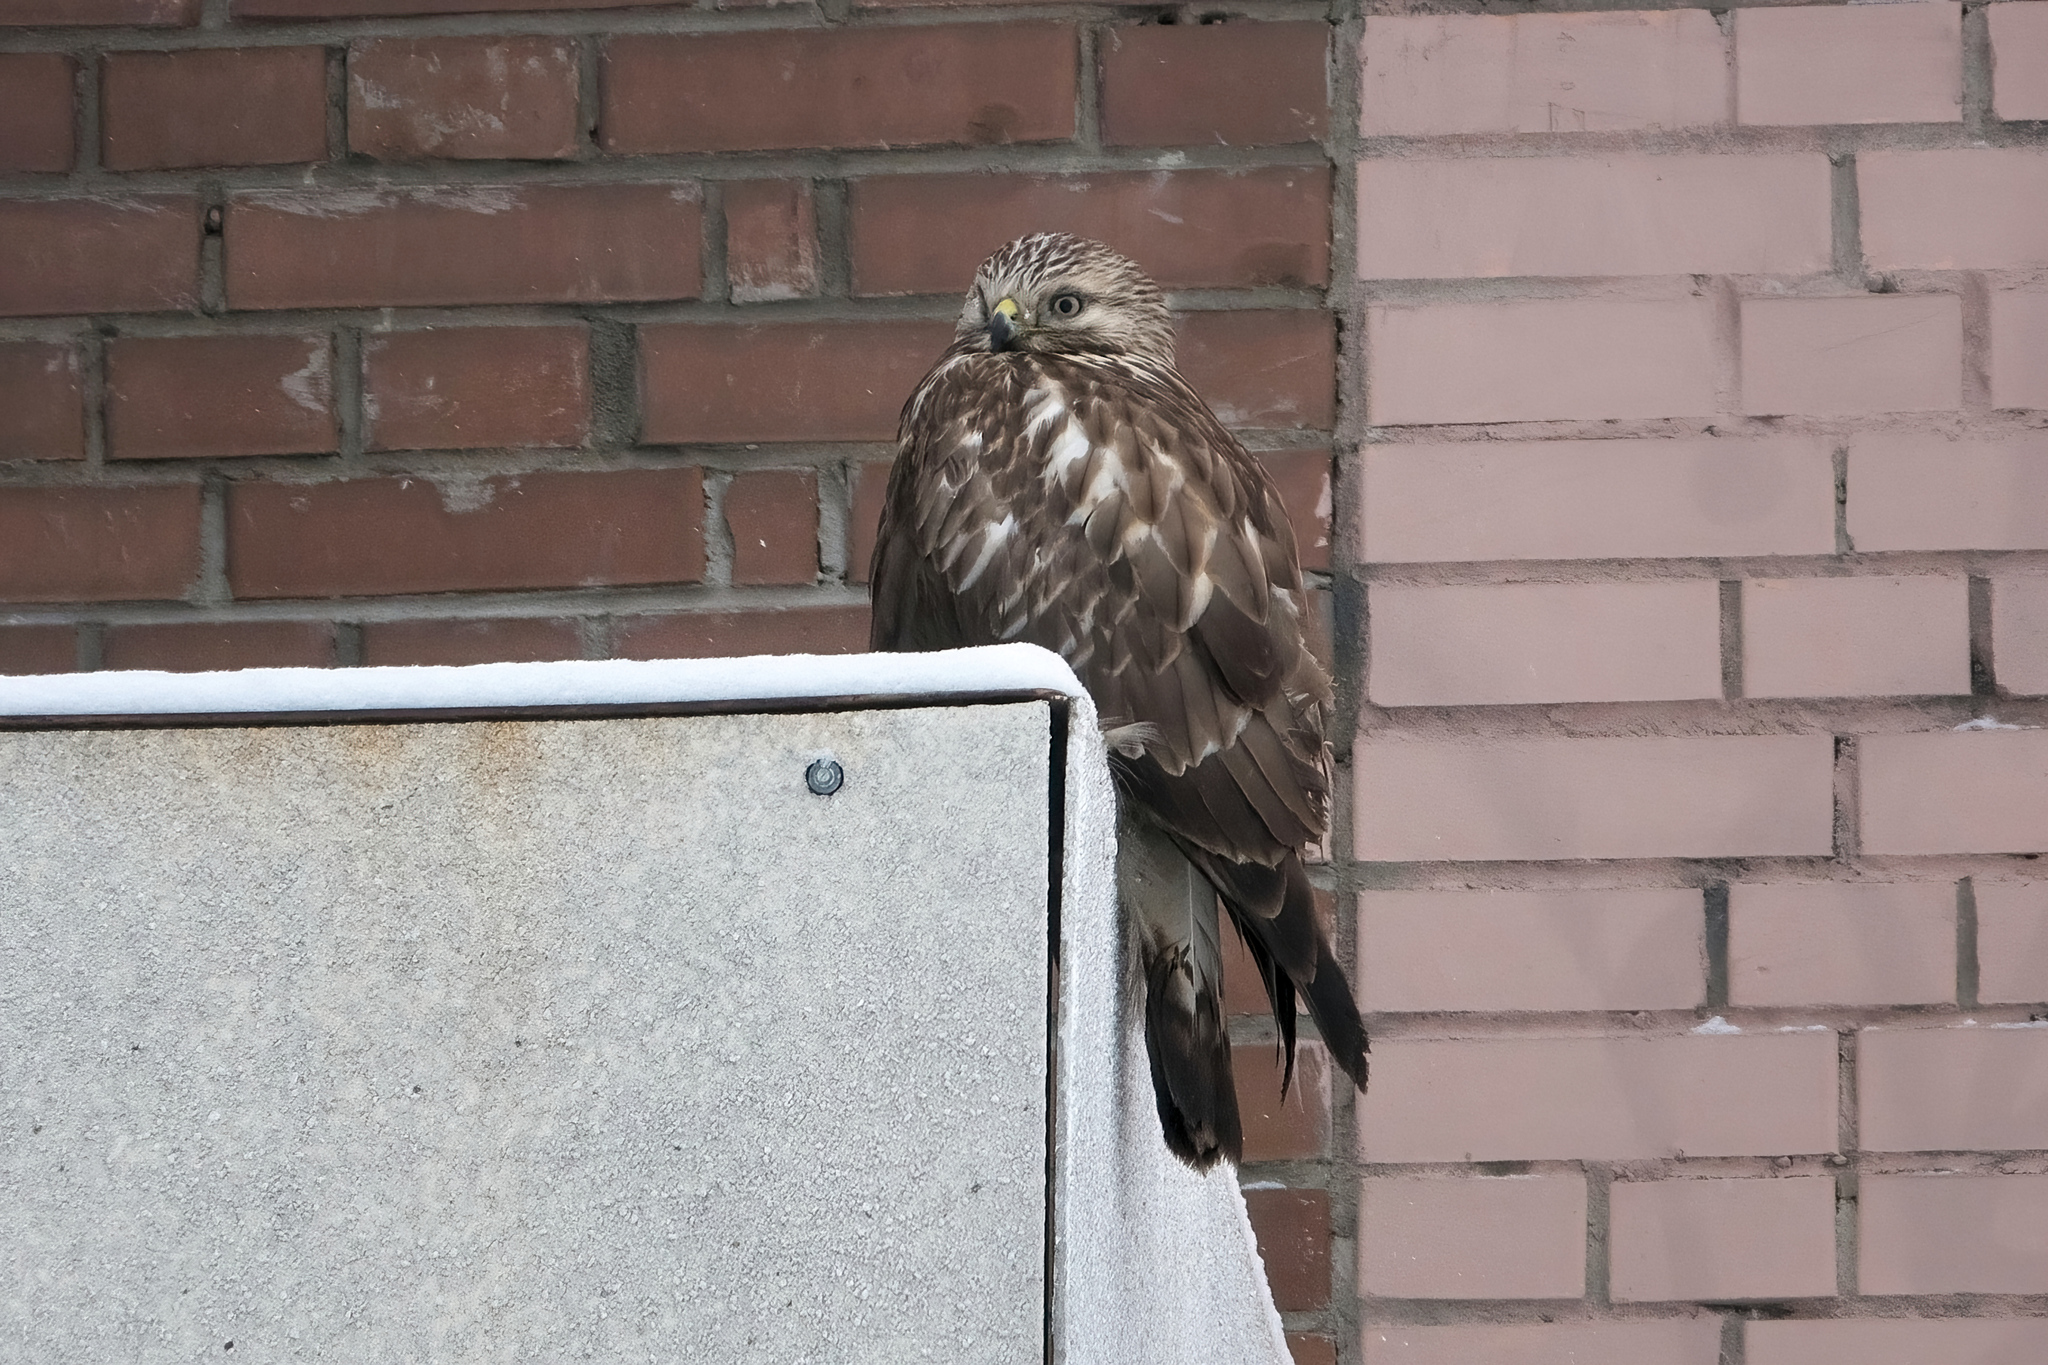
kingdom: Animalia
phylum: Chordata
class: Aves
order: Accipitriformes
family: Accipitridae
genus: Buteo
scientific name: Buteo lagopus
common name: Rough-legged buzzard
